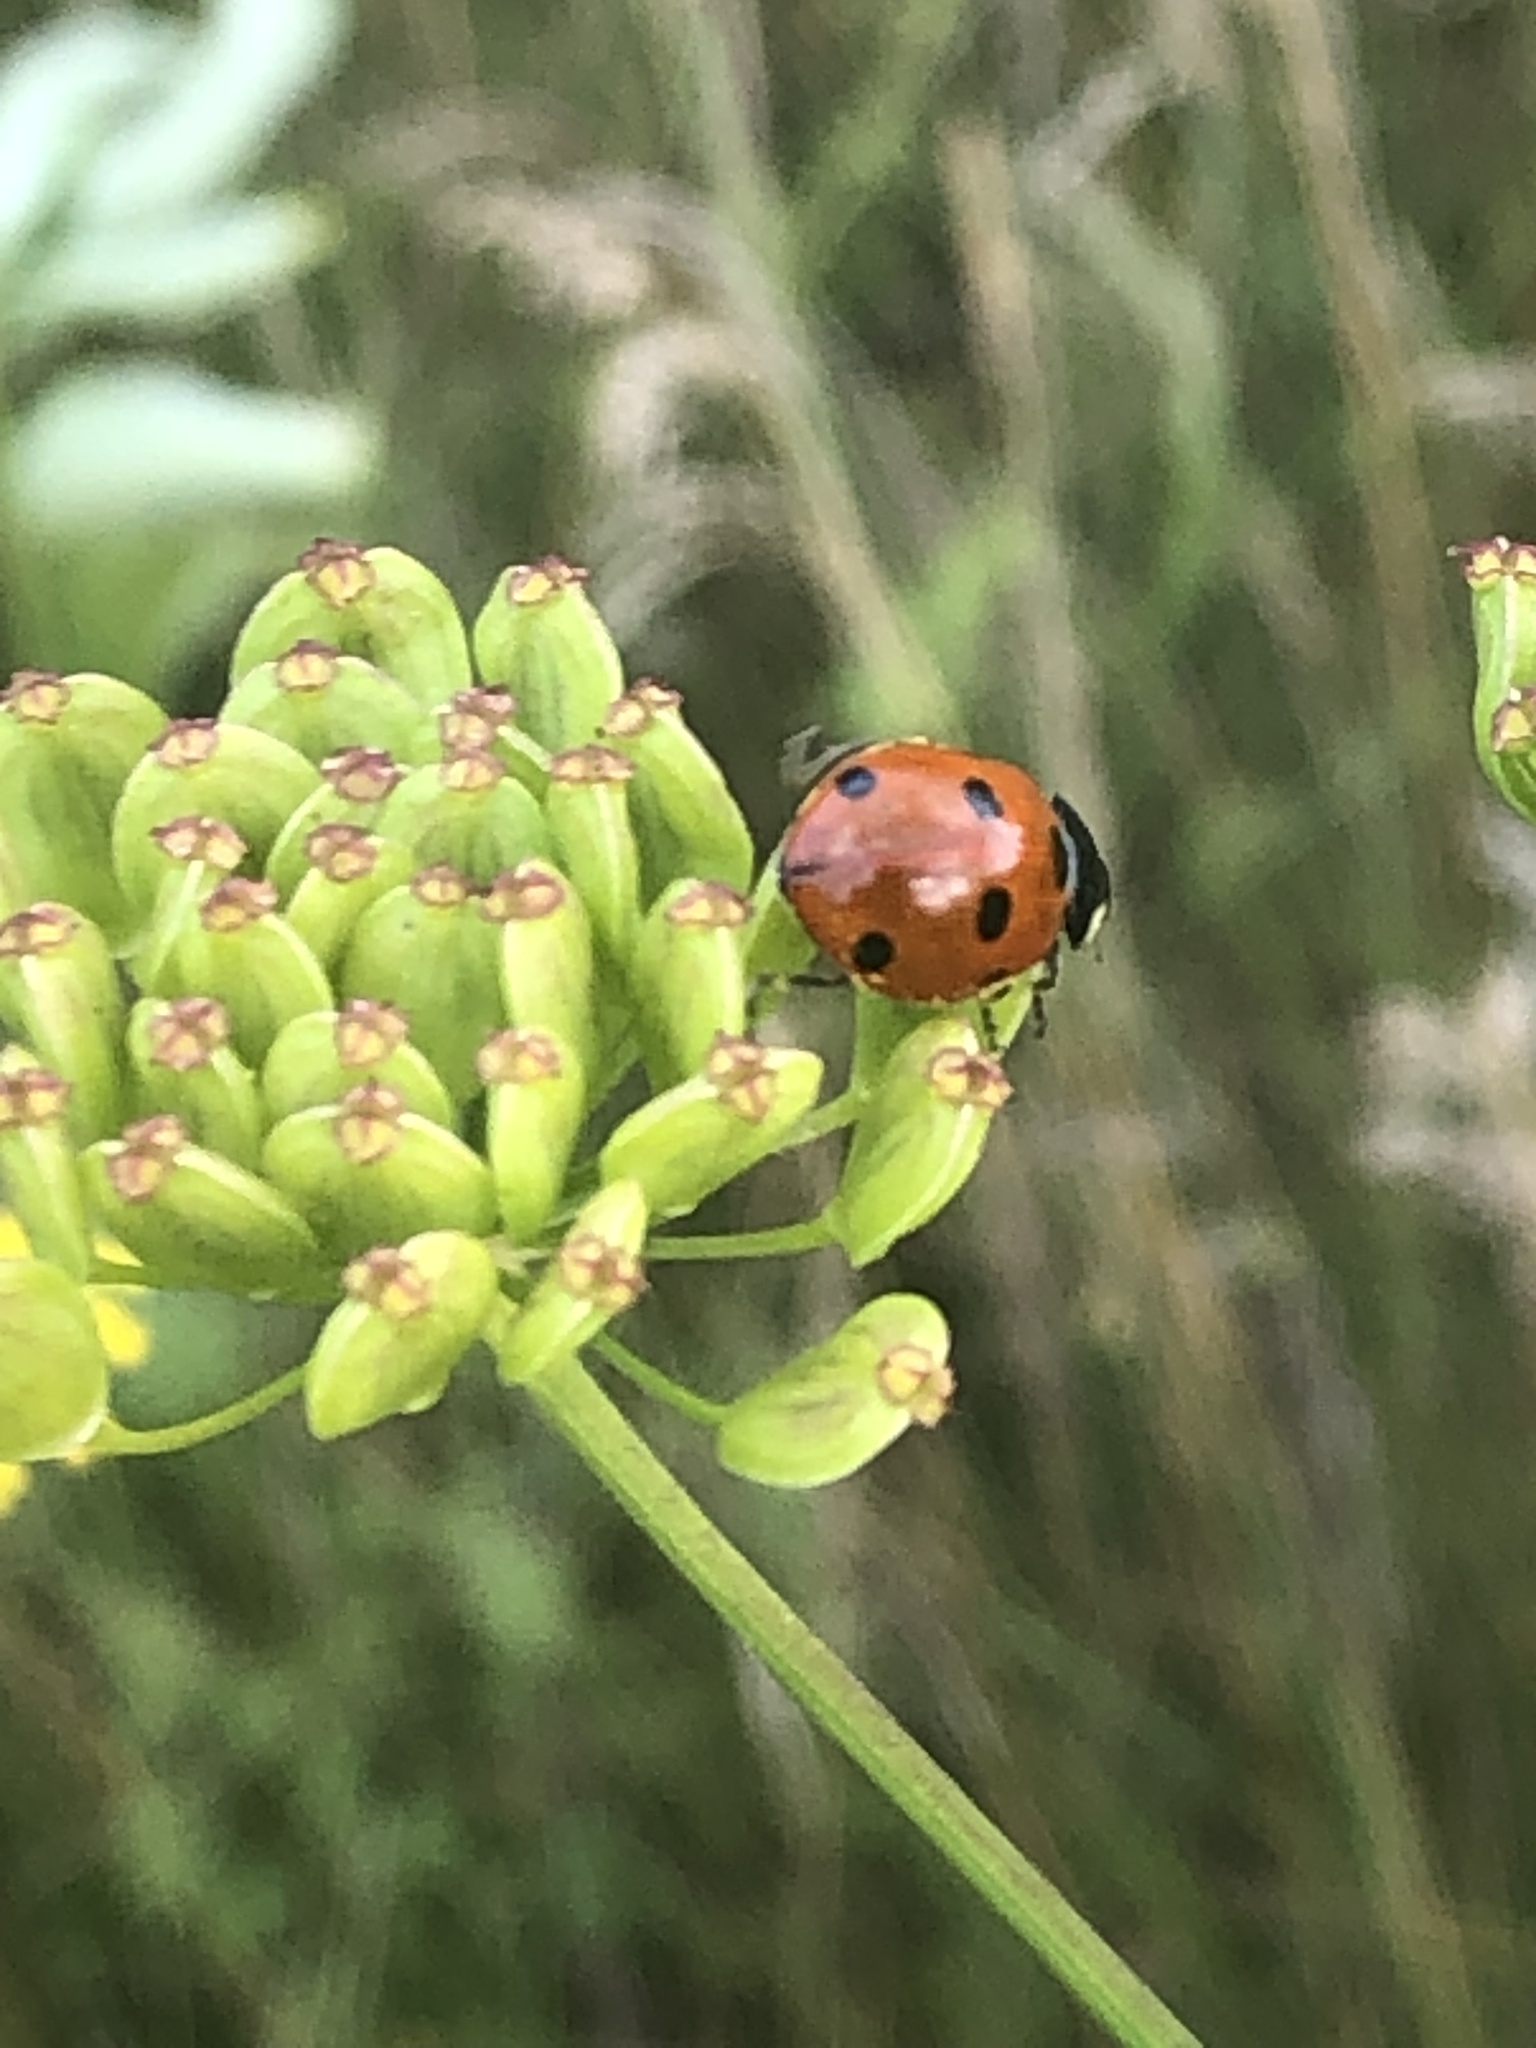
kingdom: Animalia
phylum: Arthropoda
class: Insecta
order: Coleoptera
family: Coccinellidae
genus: Coccinella
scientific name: Coccinella septempunctata
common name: Sevenspotted lady beetle
